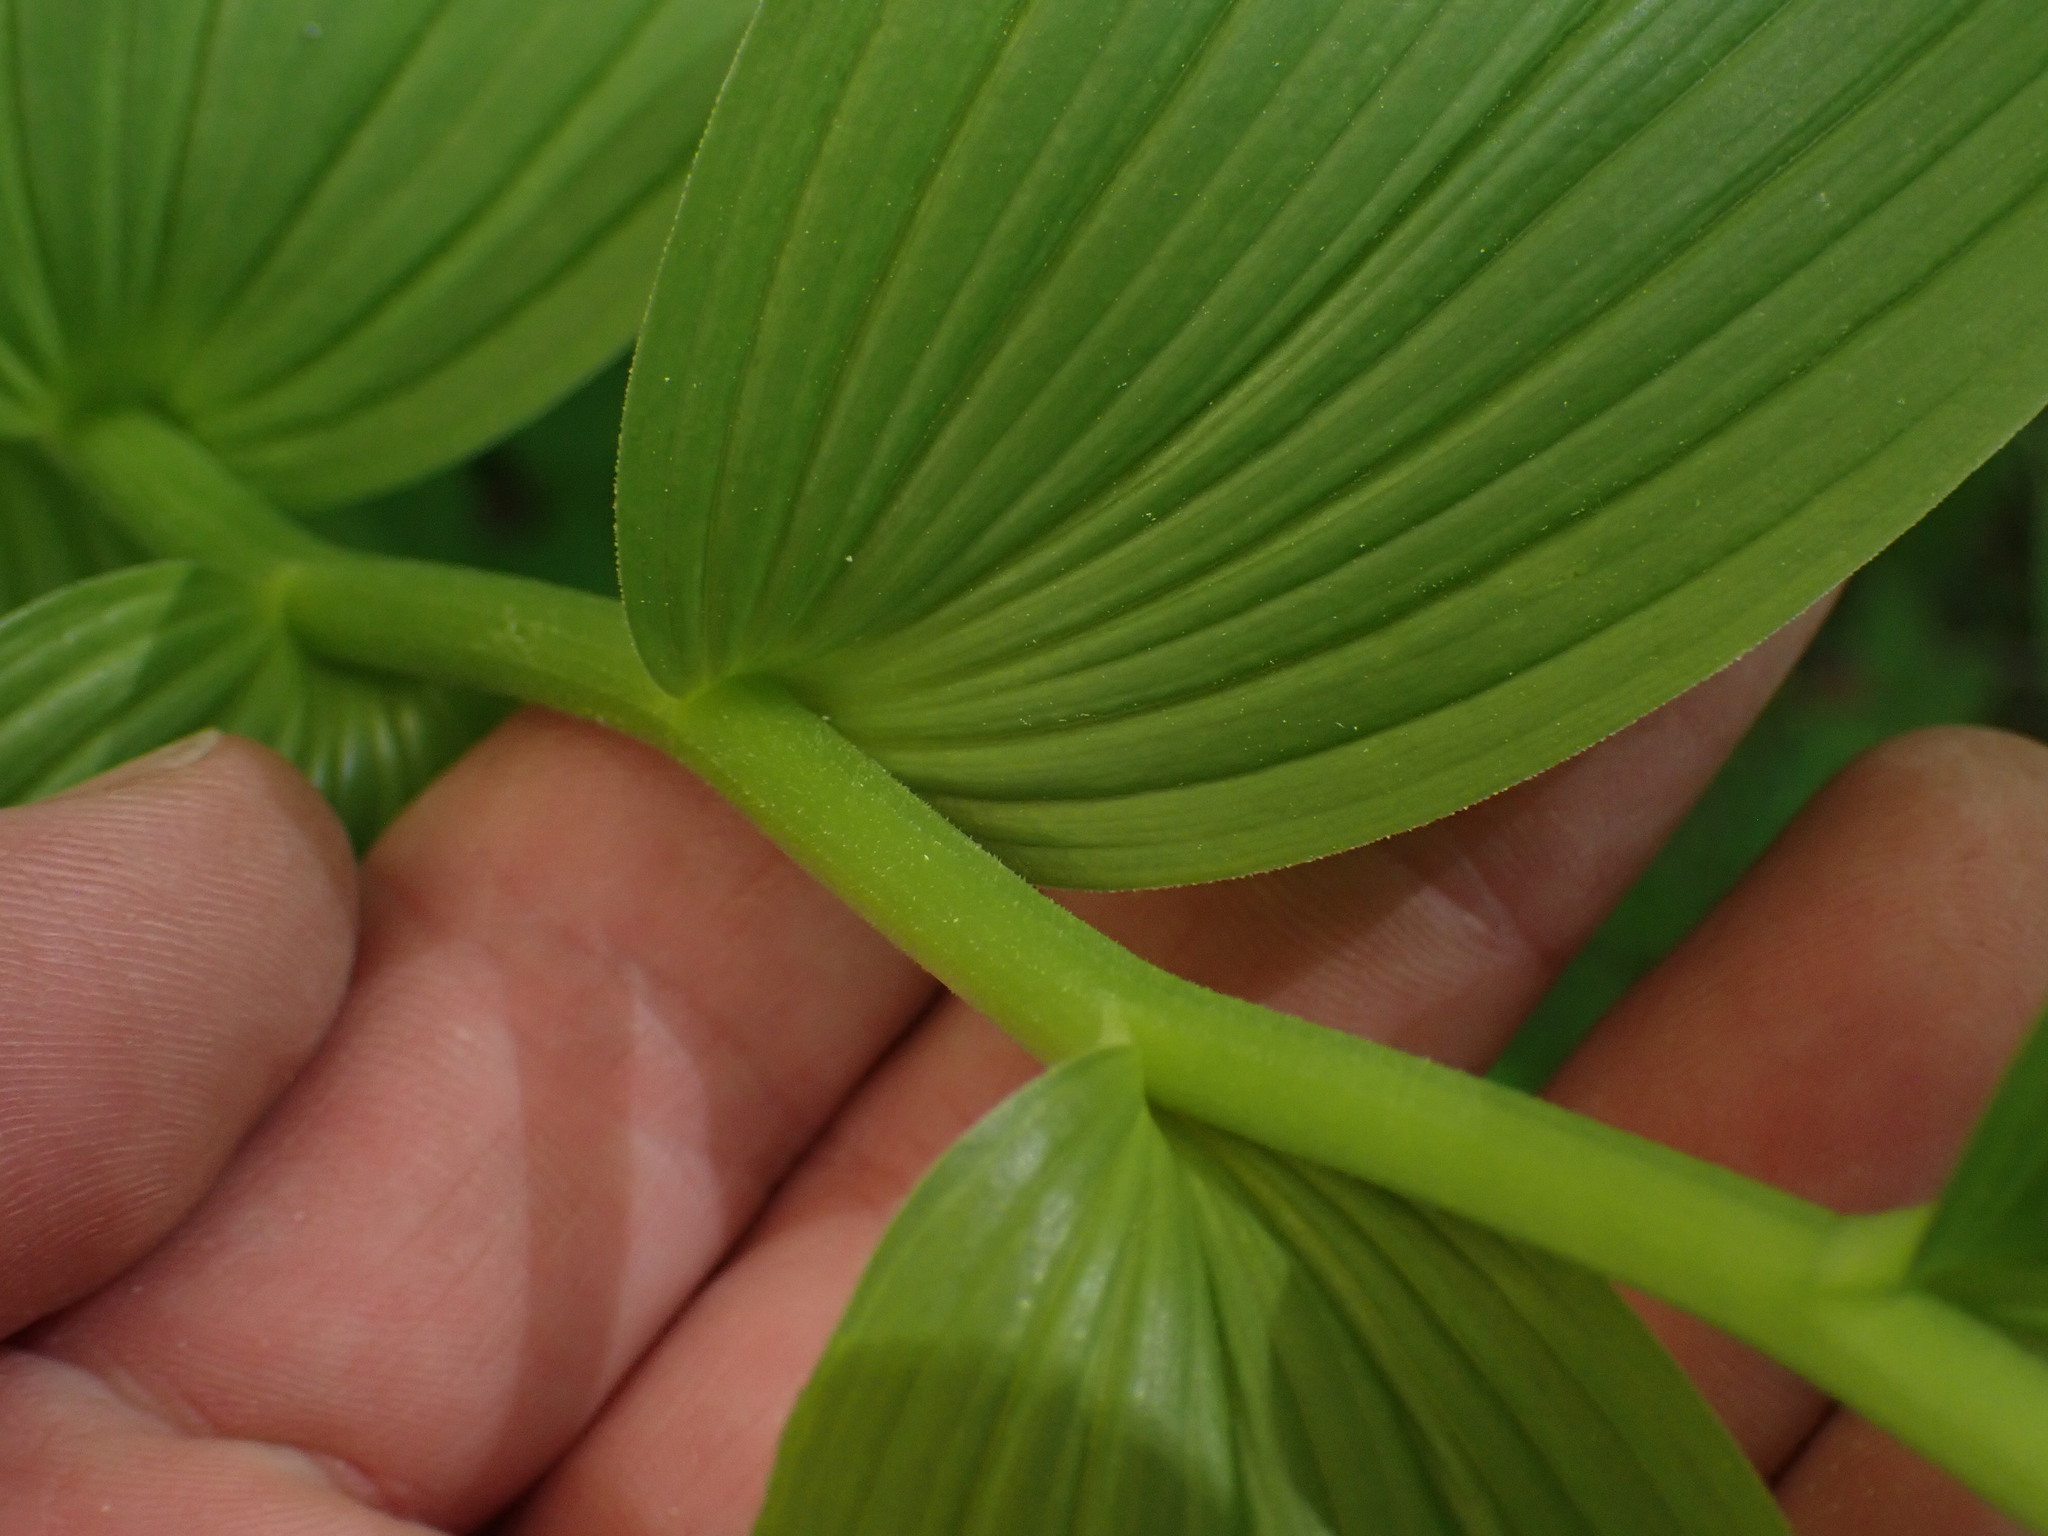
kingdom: Plantae
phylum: Tracheophyta
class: Liliopsida
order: Asparagales
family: Asparagaceae
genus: Maianthemum
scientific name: Maianthemum racemosum
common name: False spikenard
